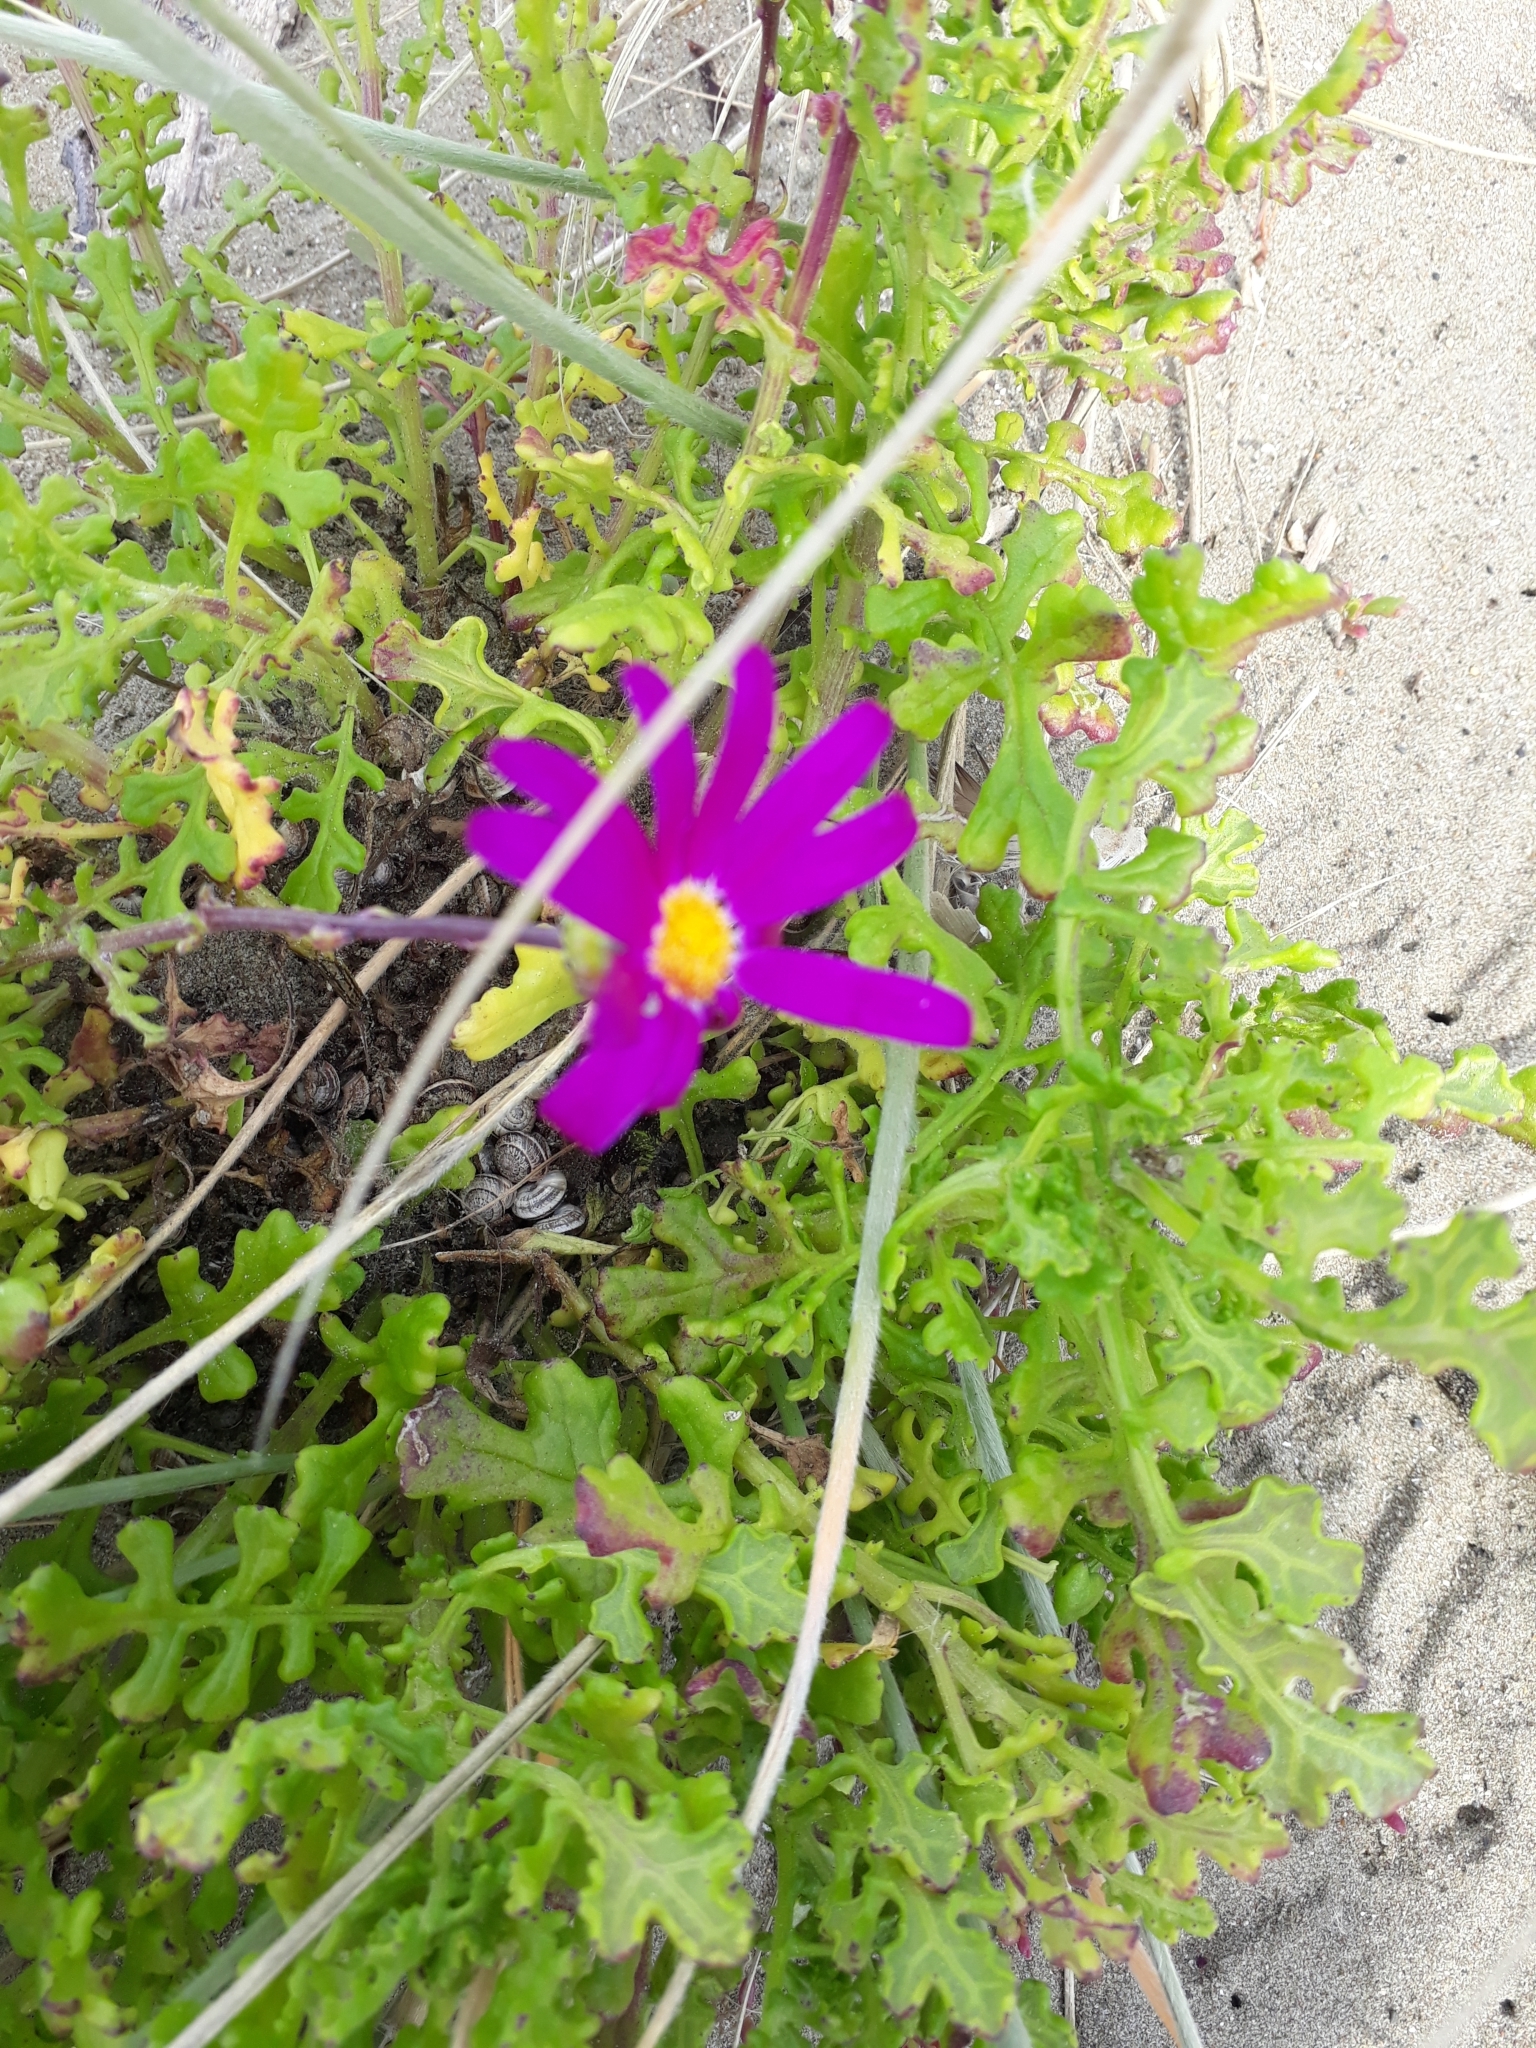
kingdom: Plantae
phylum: Tracheophyta
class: Magnoliopsida
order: Asterales
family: Asteraceae
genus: Senecio
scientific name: Senecio elegans
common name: Purple groundsel
